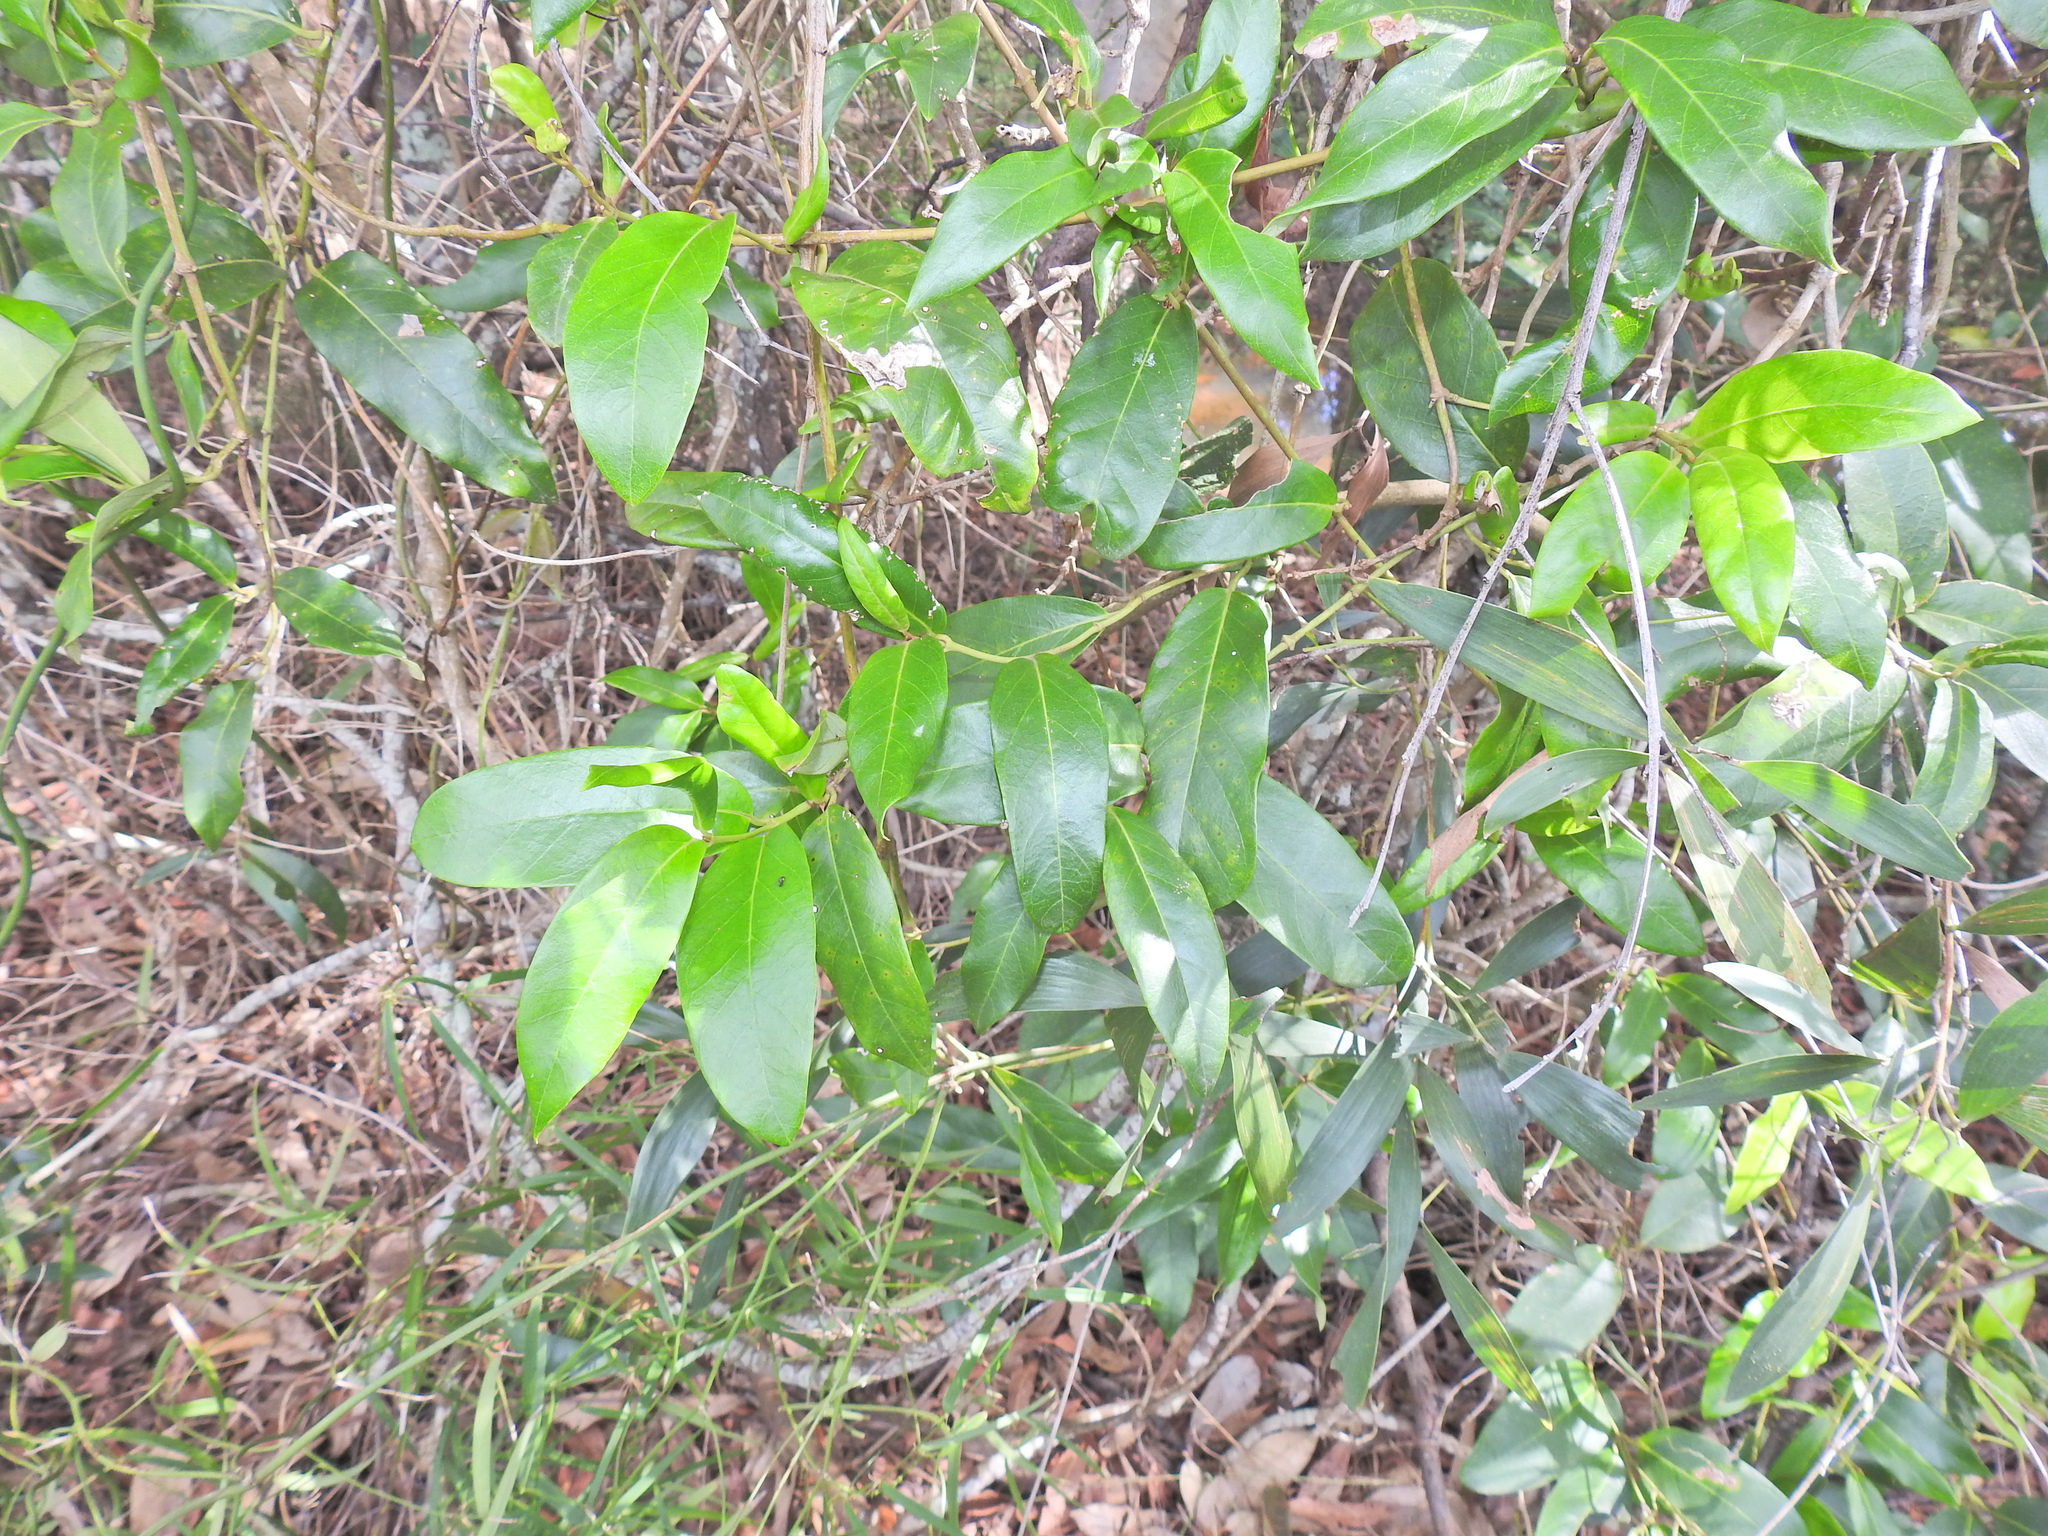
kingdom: Plantae
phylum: Tracheophyta
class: Magnoliopsida
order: Gentianales
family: Apocynaceae
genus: Parsonsia
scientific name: Parsonsia straminea
